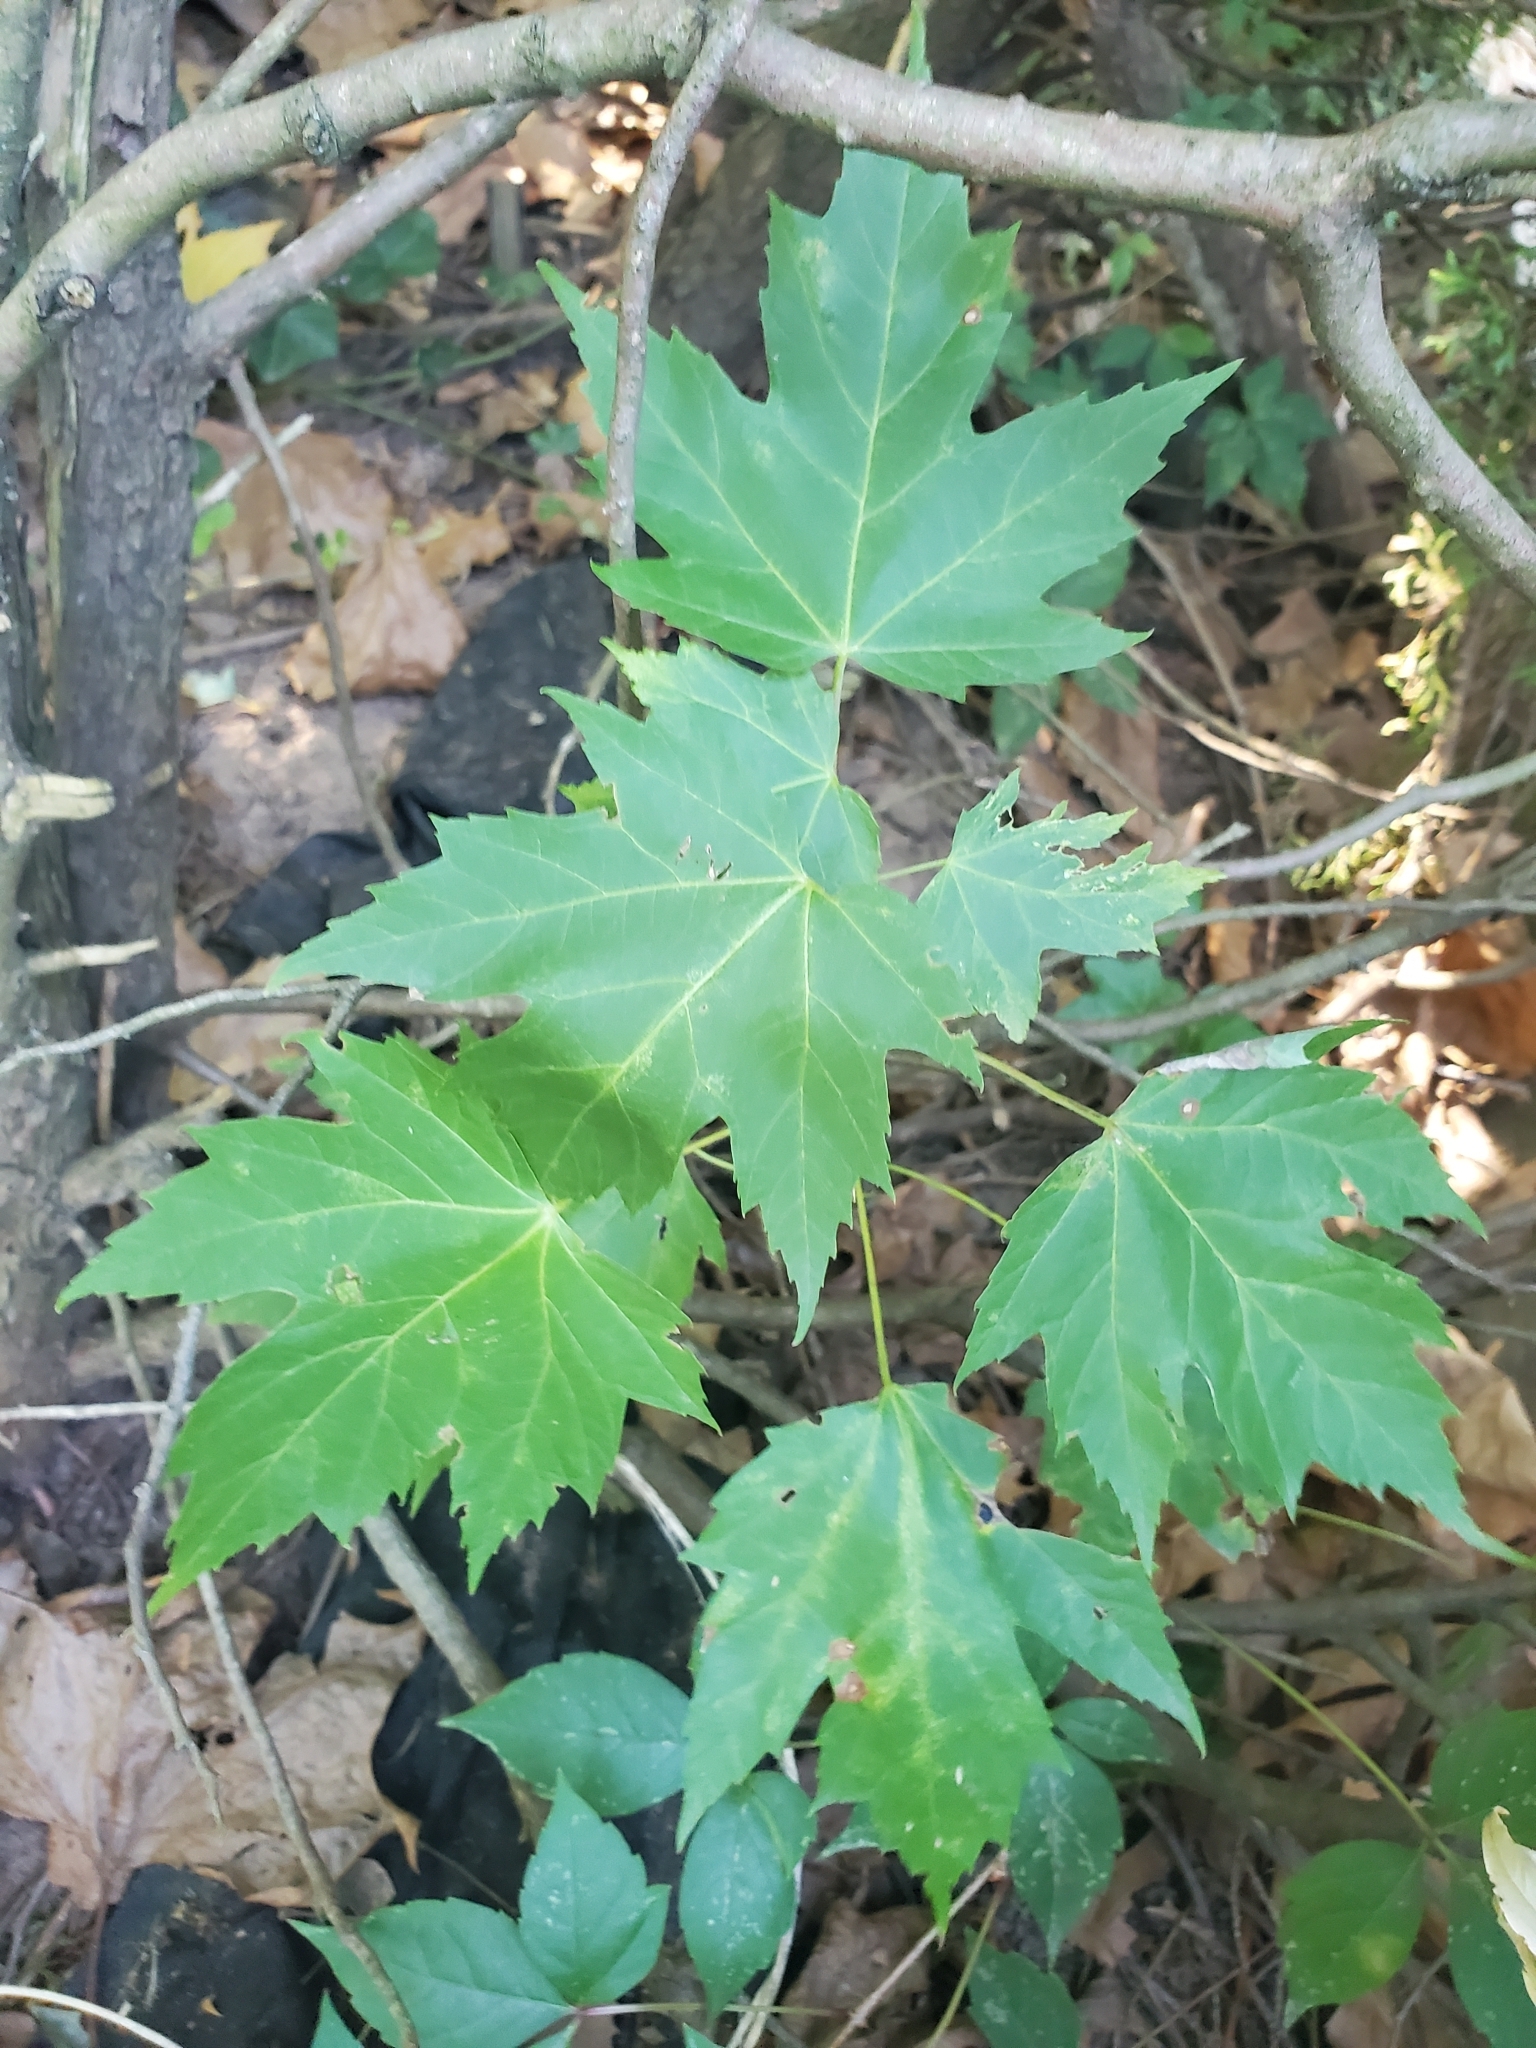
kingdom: Plantae
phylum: Tracheophyta
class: Magnoliopsida
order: Sapindales
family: Sapindaceae
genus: Acer
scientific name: Acer saccharinum
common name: Silver maple
